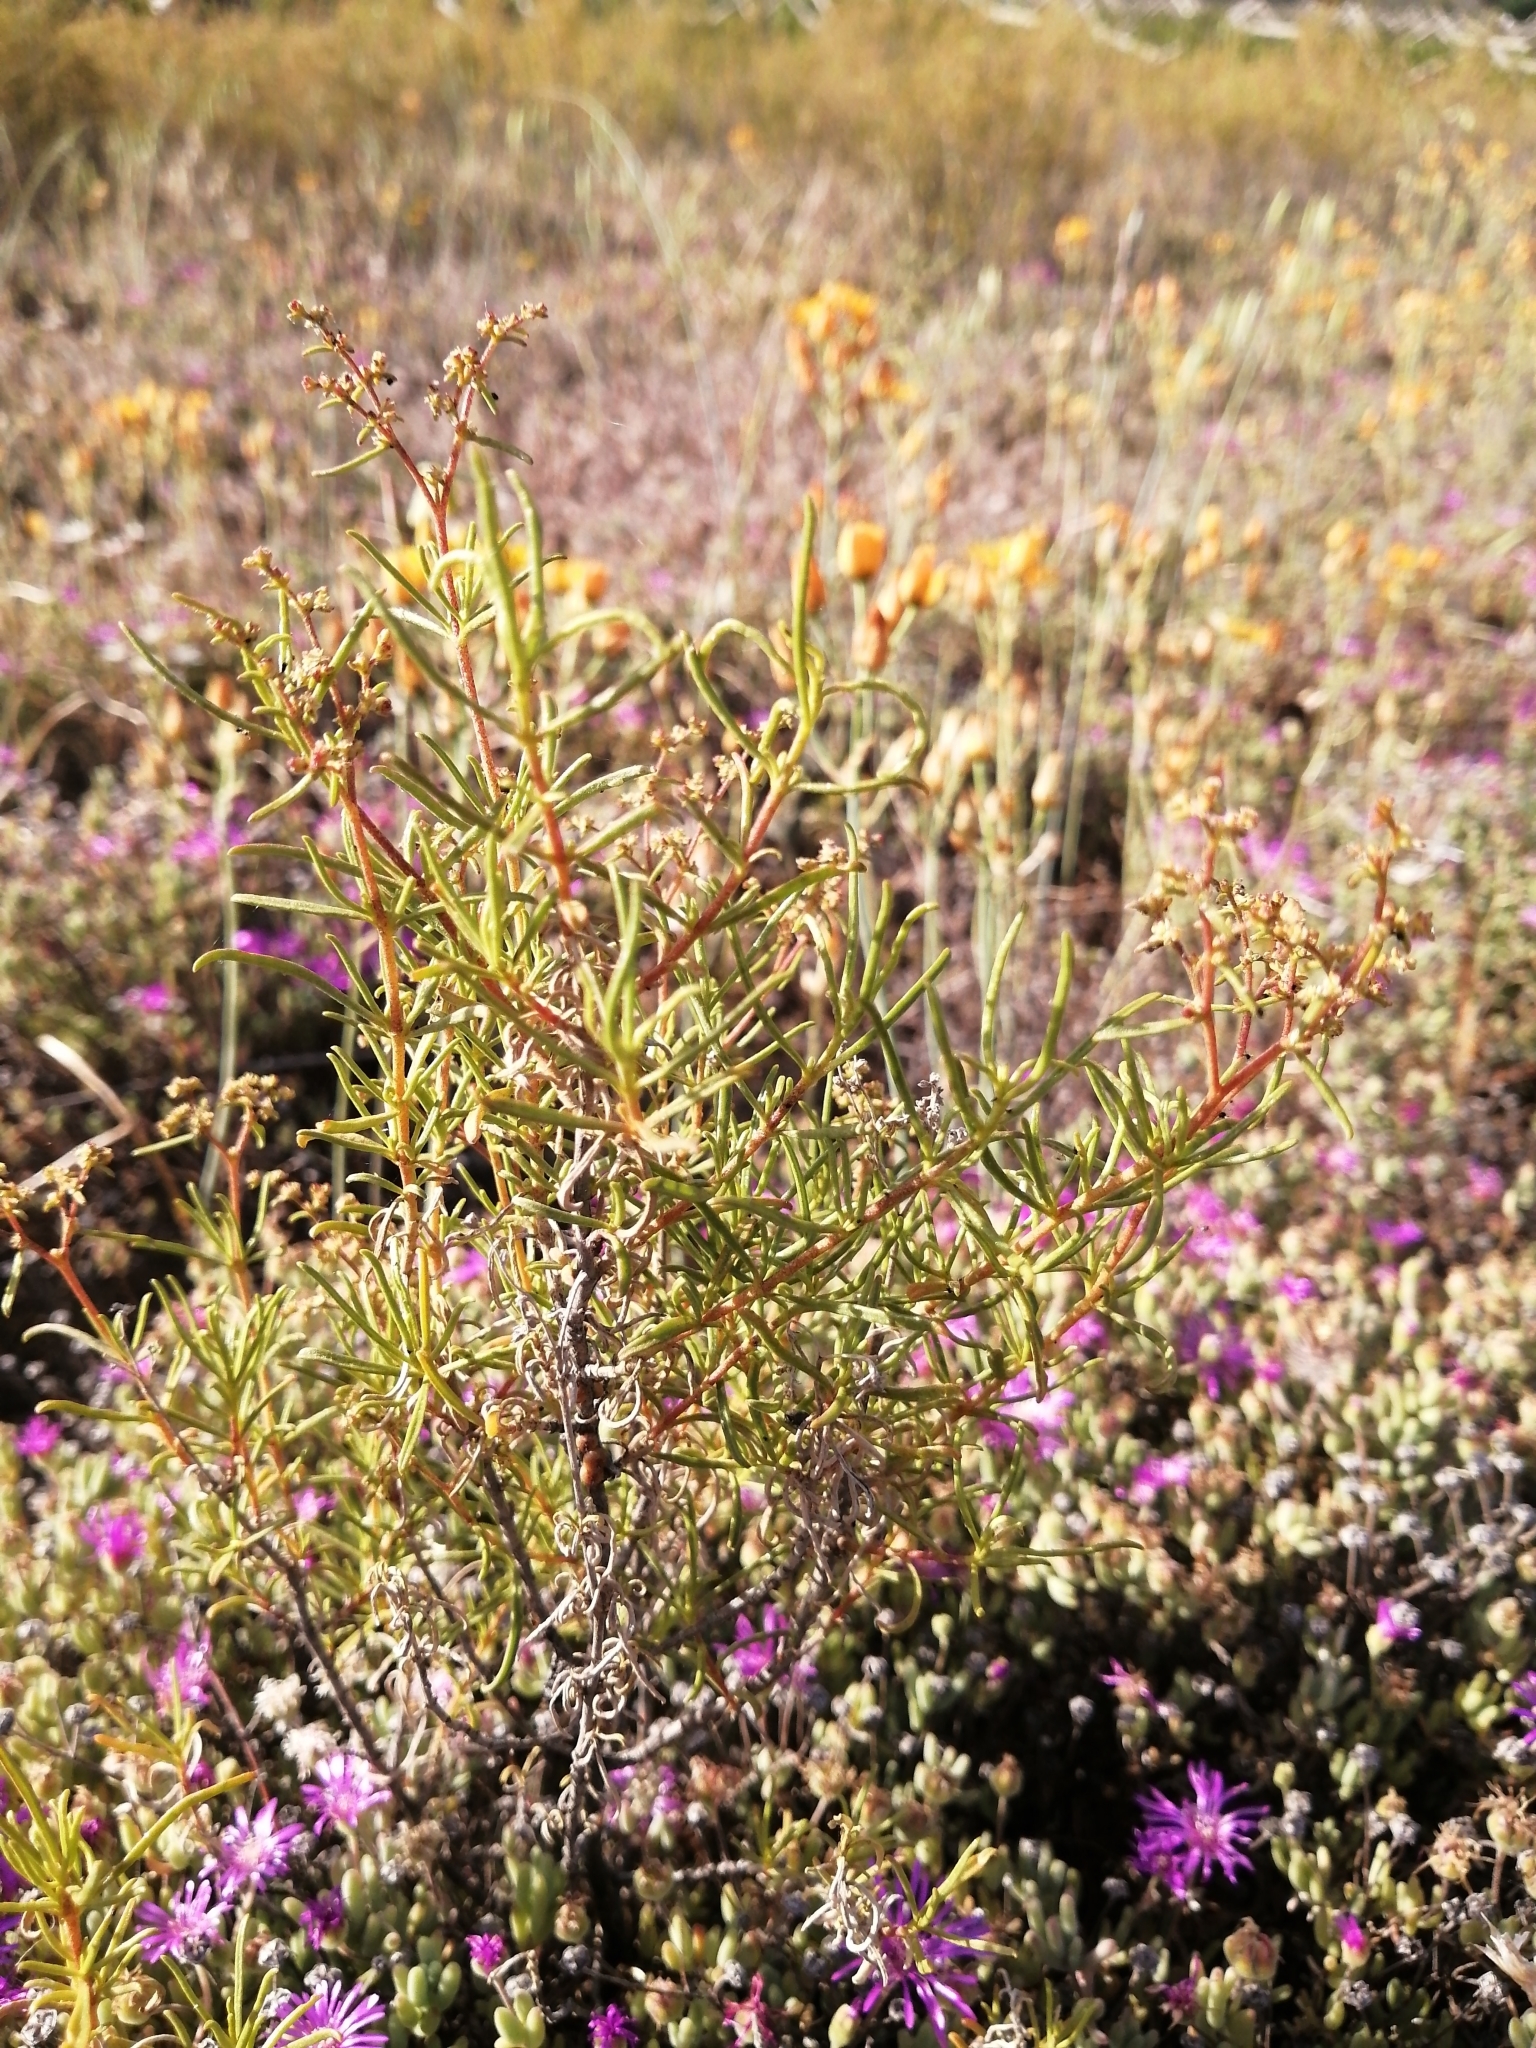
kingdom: Plantae
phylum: Tracheophyta
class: Magnoliopsida
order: Caryophyllales
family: Aizoaceae
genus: Aizoon
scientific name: Aizoon africanum
